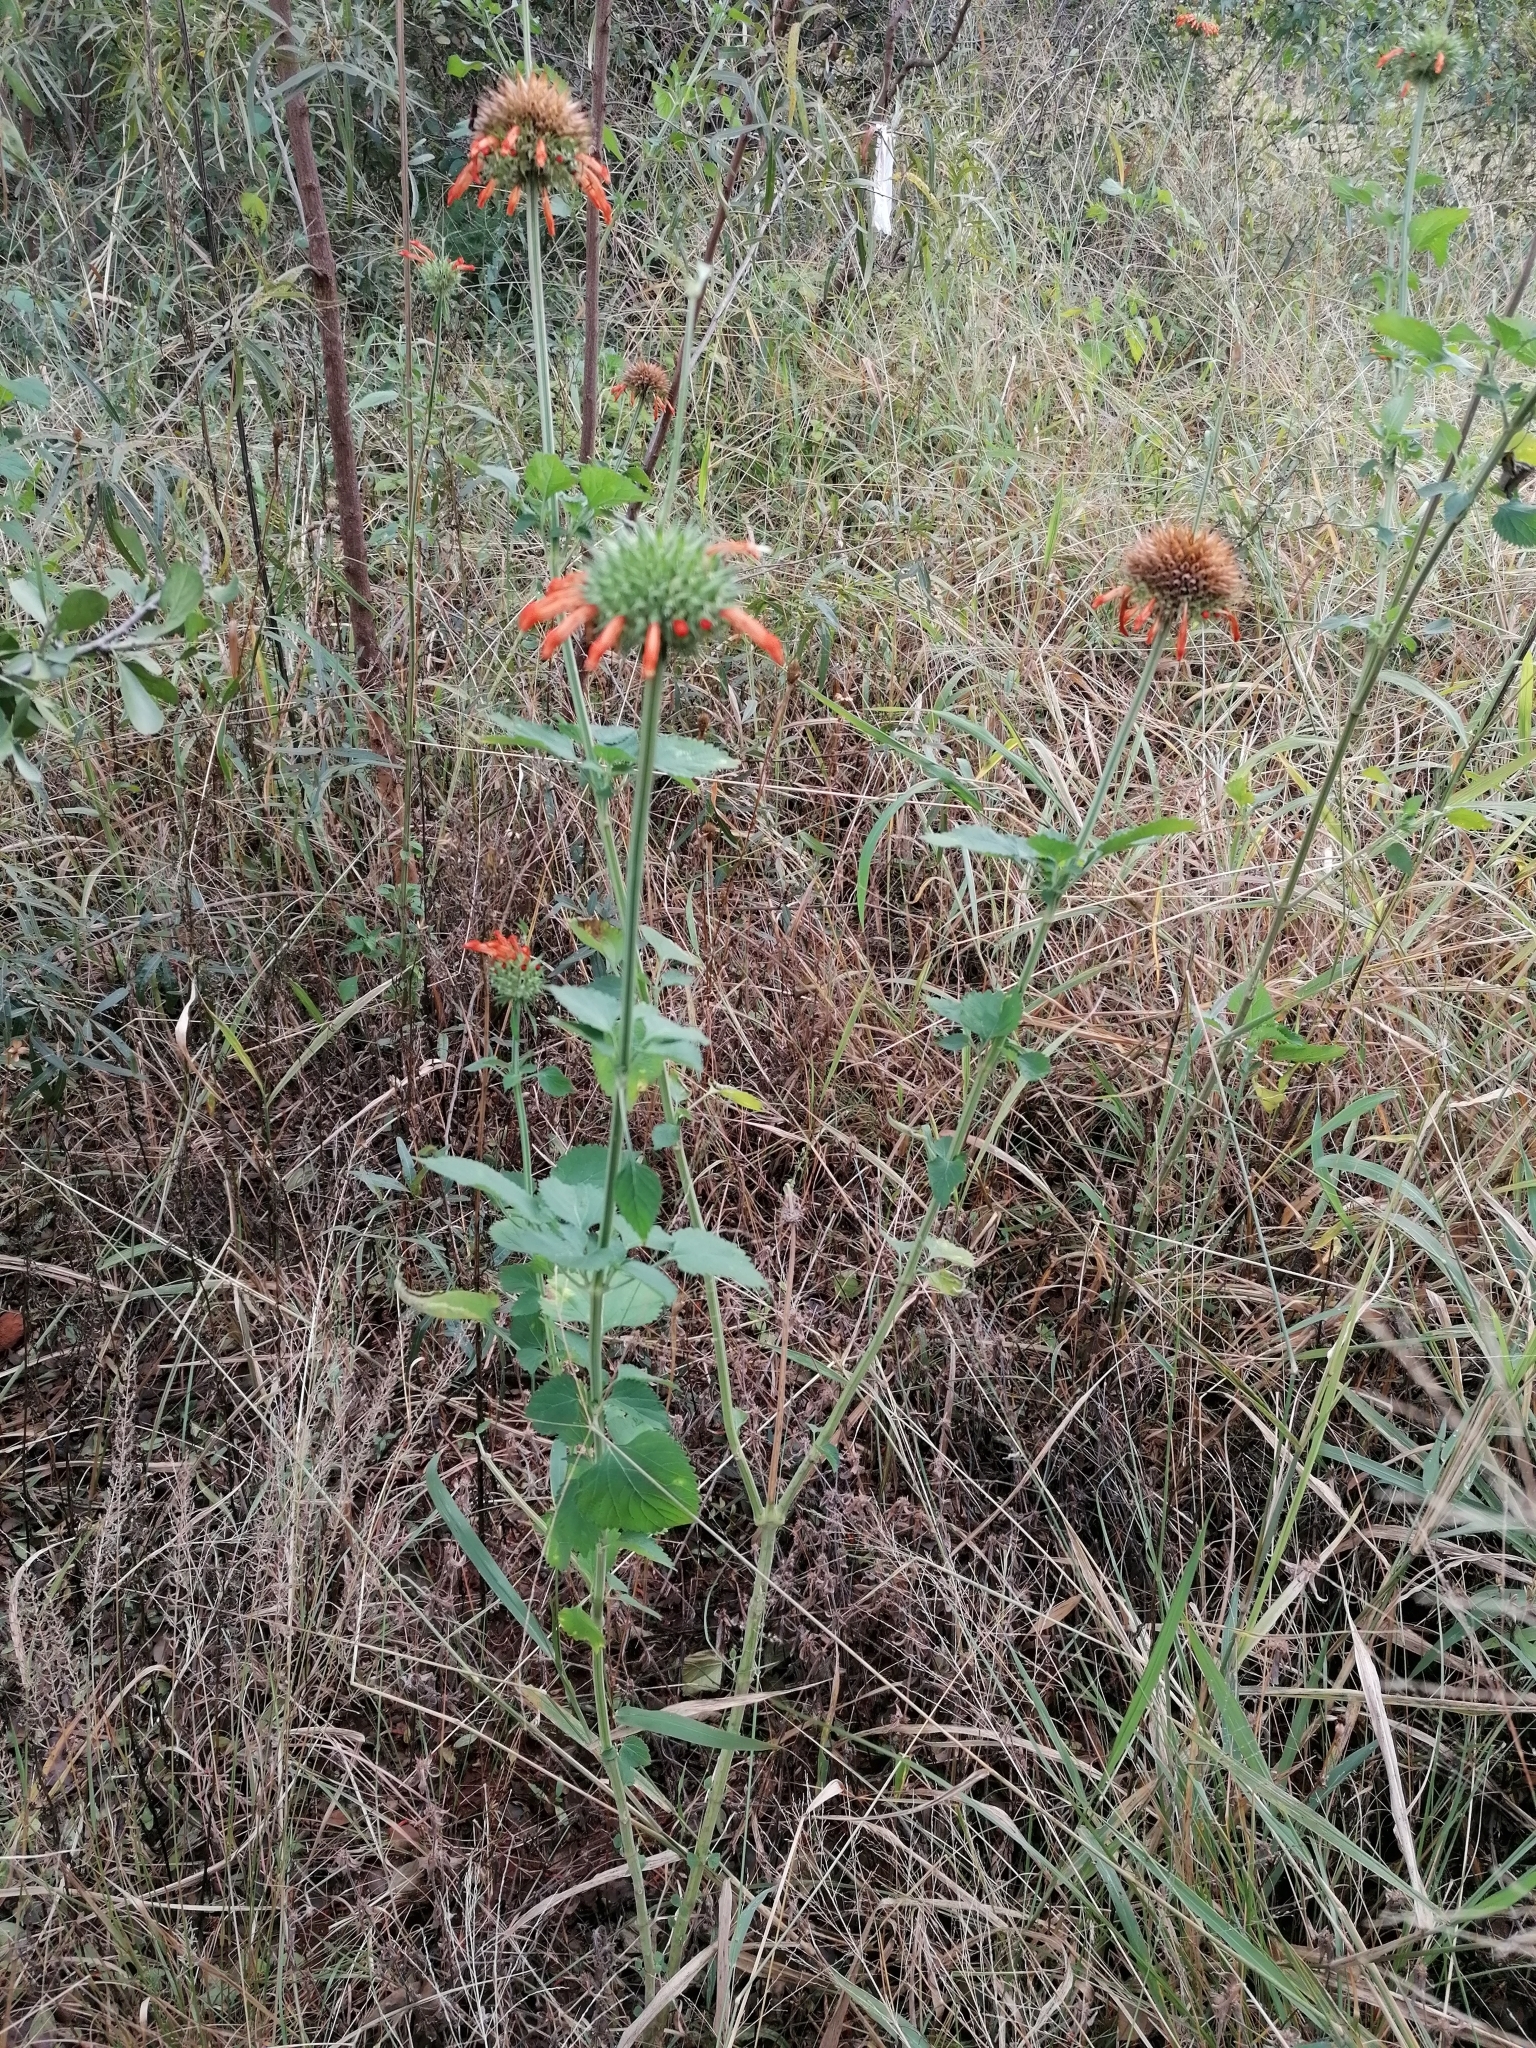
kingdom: Plantae
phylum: Tracheophyta
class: Magnoliopsida
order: Lamiales
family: Lamiaceae
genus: Leonotis
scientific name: Leonotis nepetifolia
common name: Christmas candlestick
